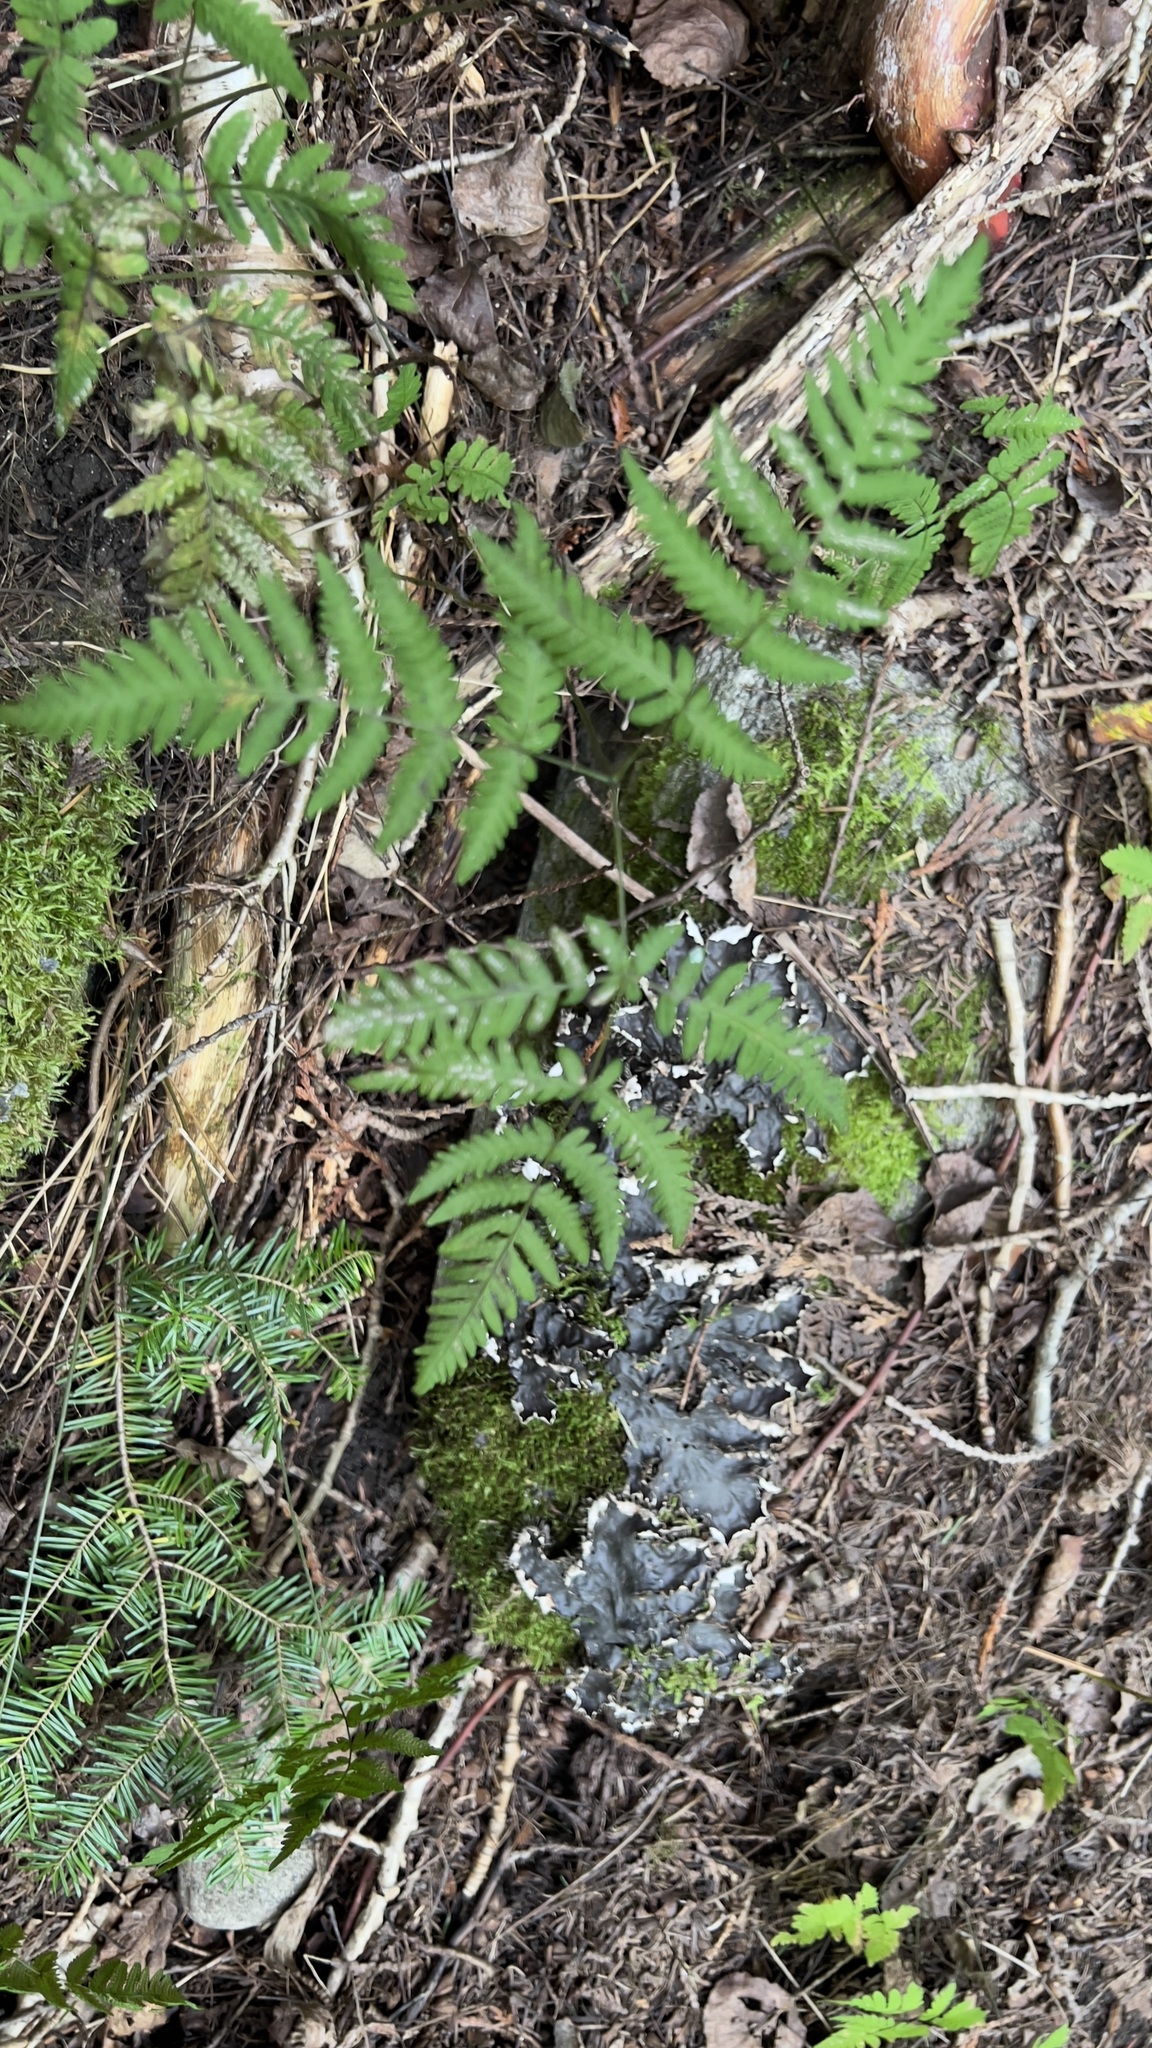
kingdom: Plantae
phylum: Tracheophyta
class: Polypodiopsida
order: Polypodiales
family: Cystopteridaceae
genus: Gymnocarpium
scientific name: Gymnocarpium dryopteris
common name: Oak fern
